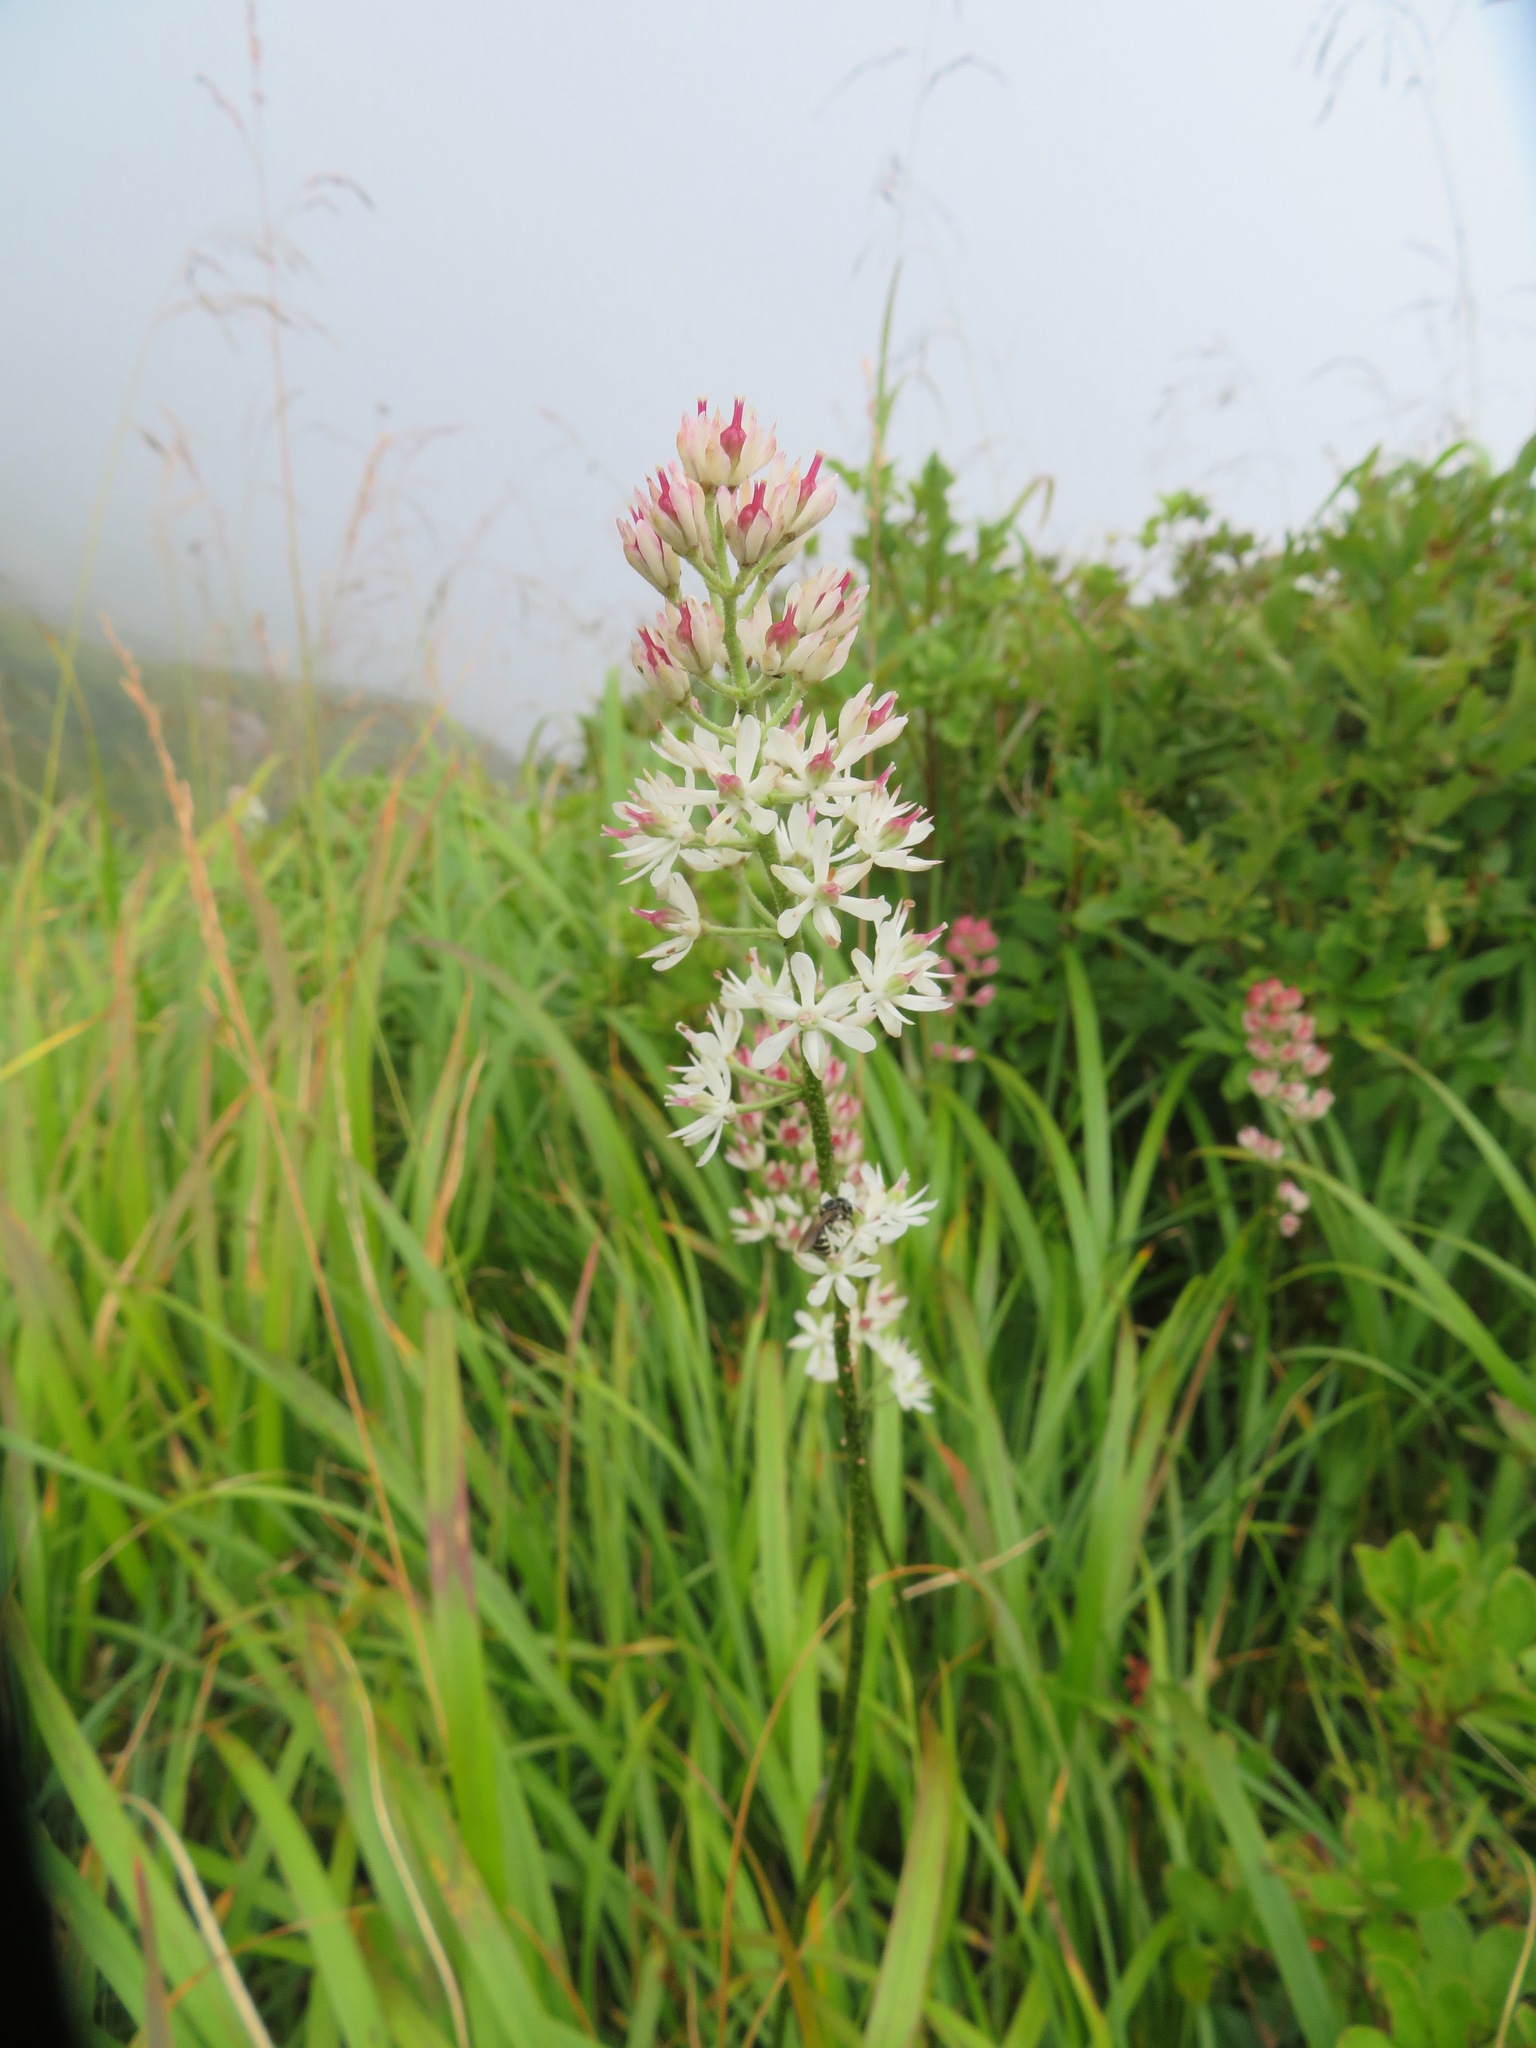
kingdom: Plantae
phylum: Tracheophyta
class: Liliopsida
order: Alismatales
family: Tofieldiaceae
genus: Triantha
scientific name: Triantha japonica
